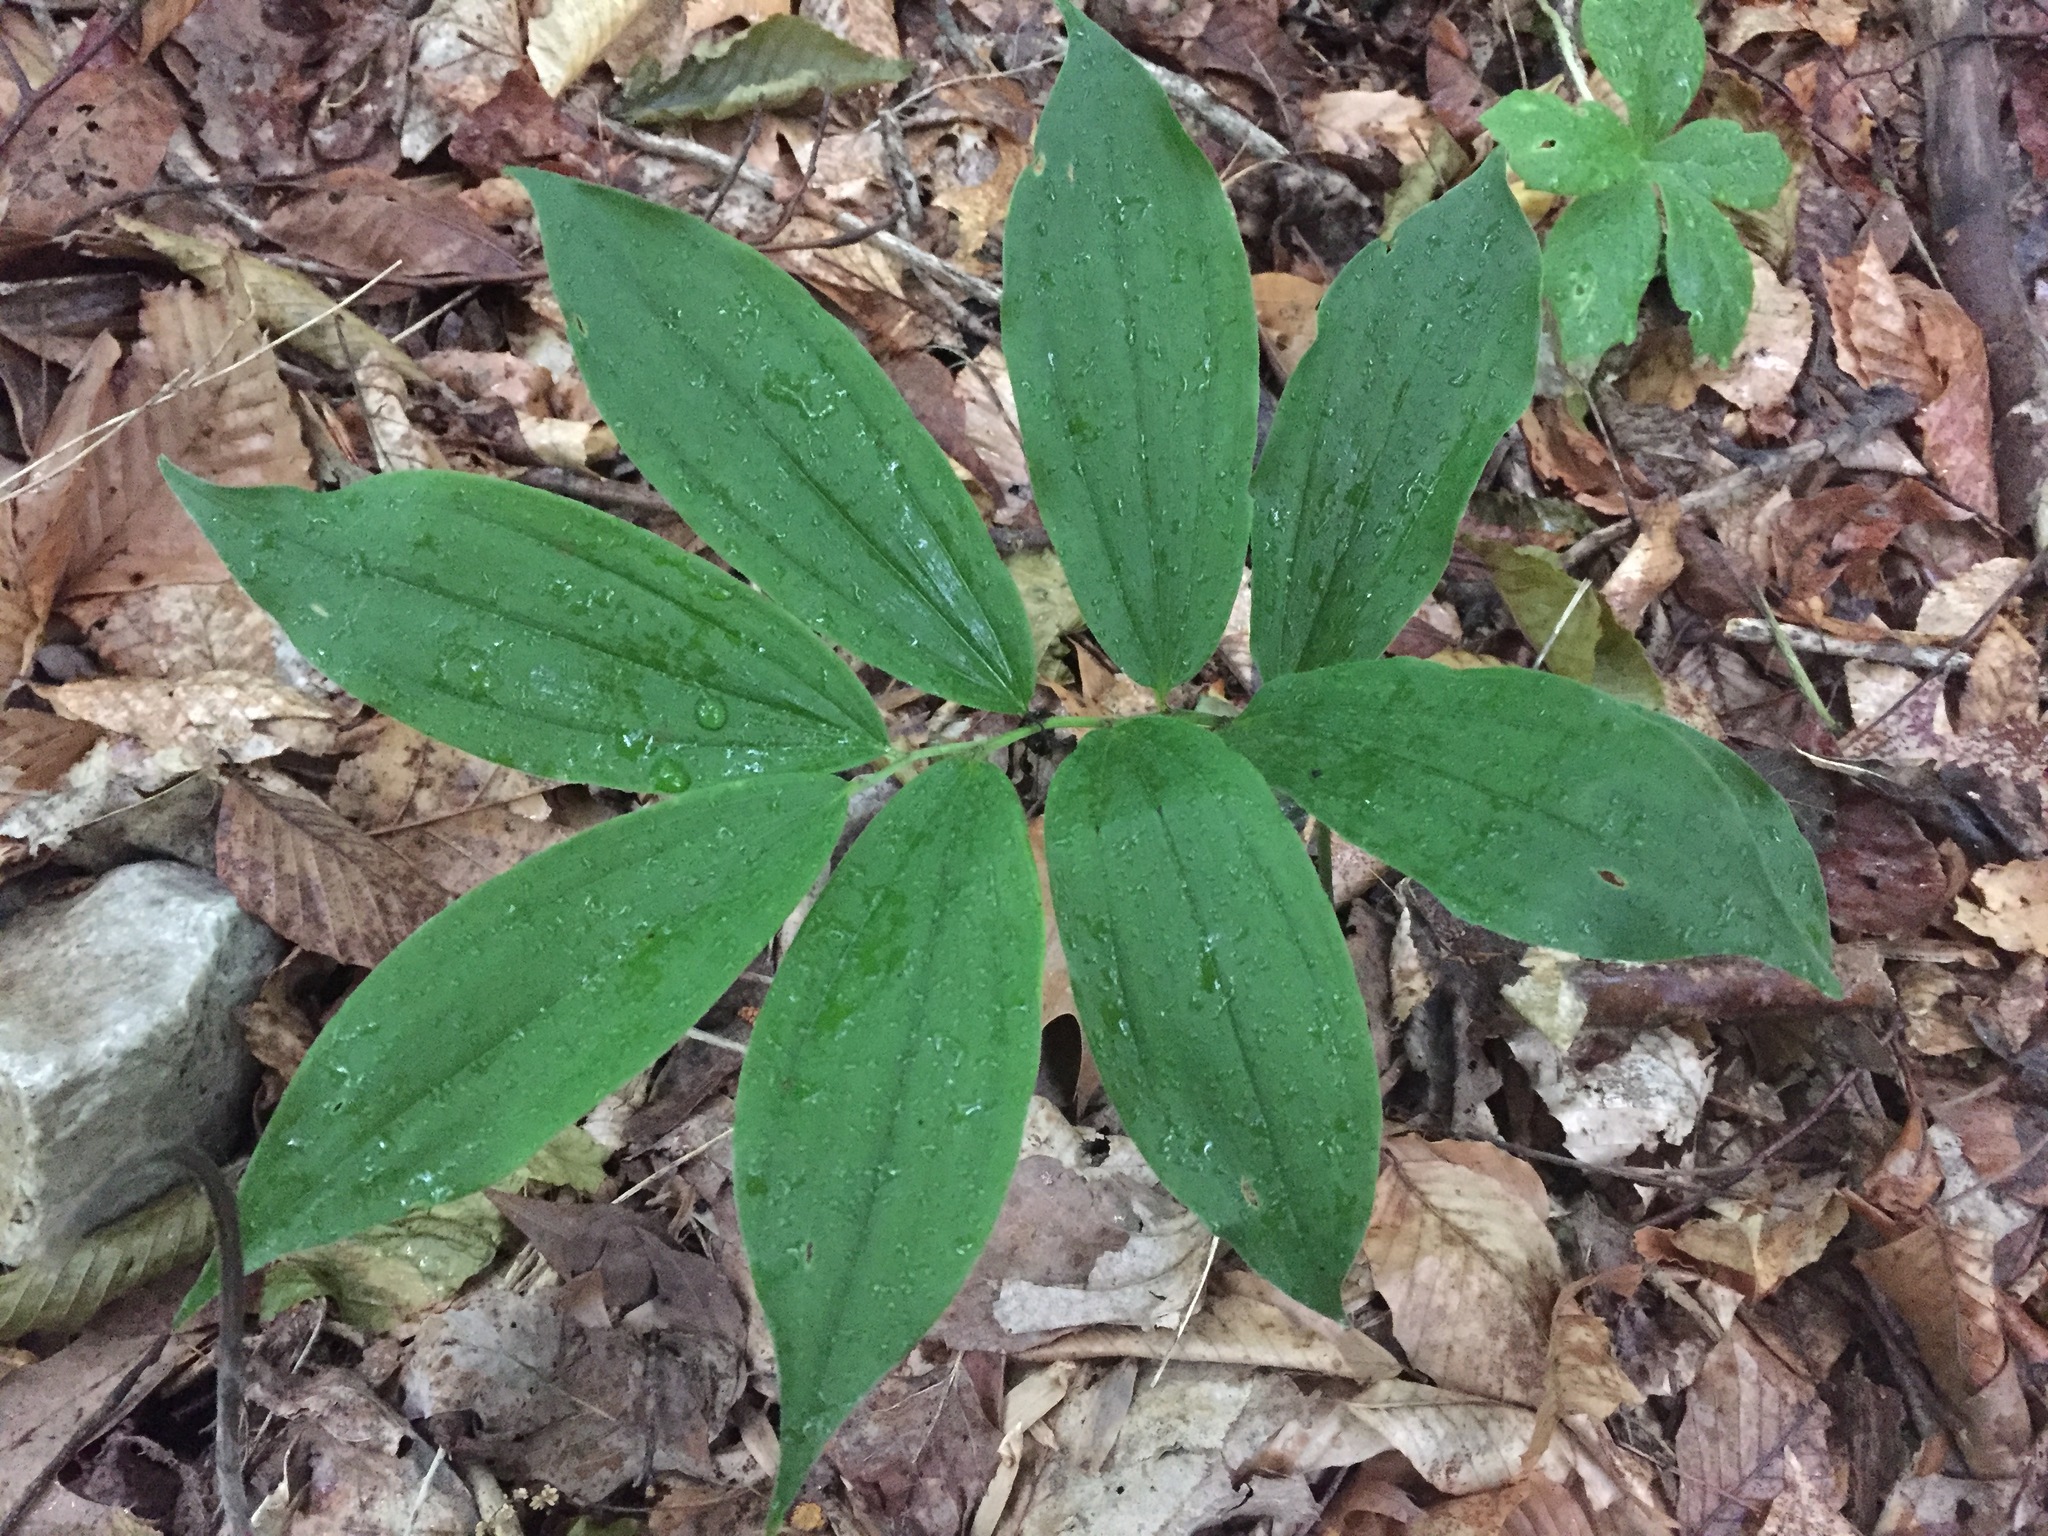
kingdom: Plantae
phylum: Tracheophyta
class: Liliopsida
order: Asparagales
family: Asparagaceae
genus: Maianthemum
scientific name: Maianthemum racemosum
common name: False spikenard
